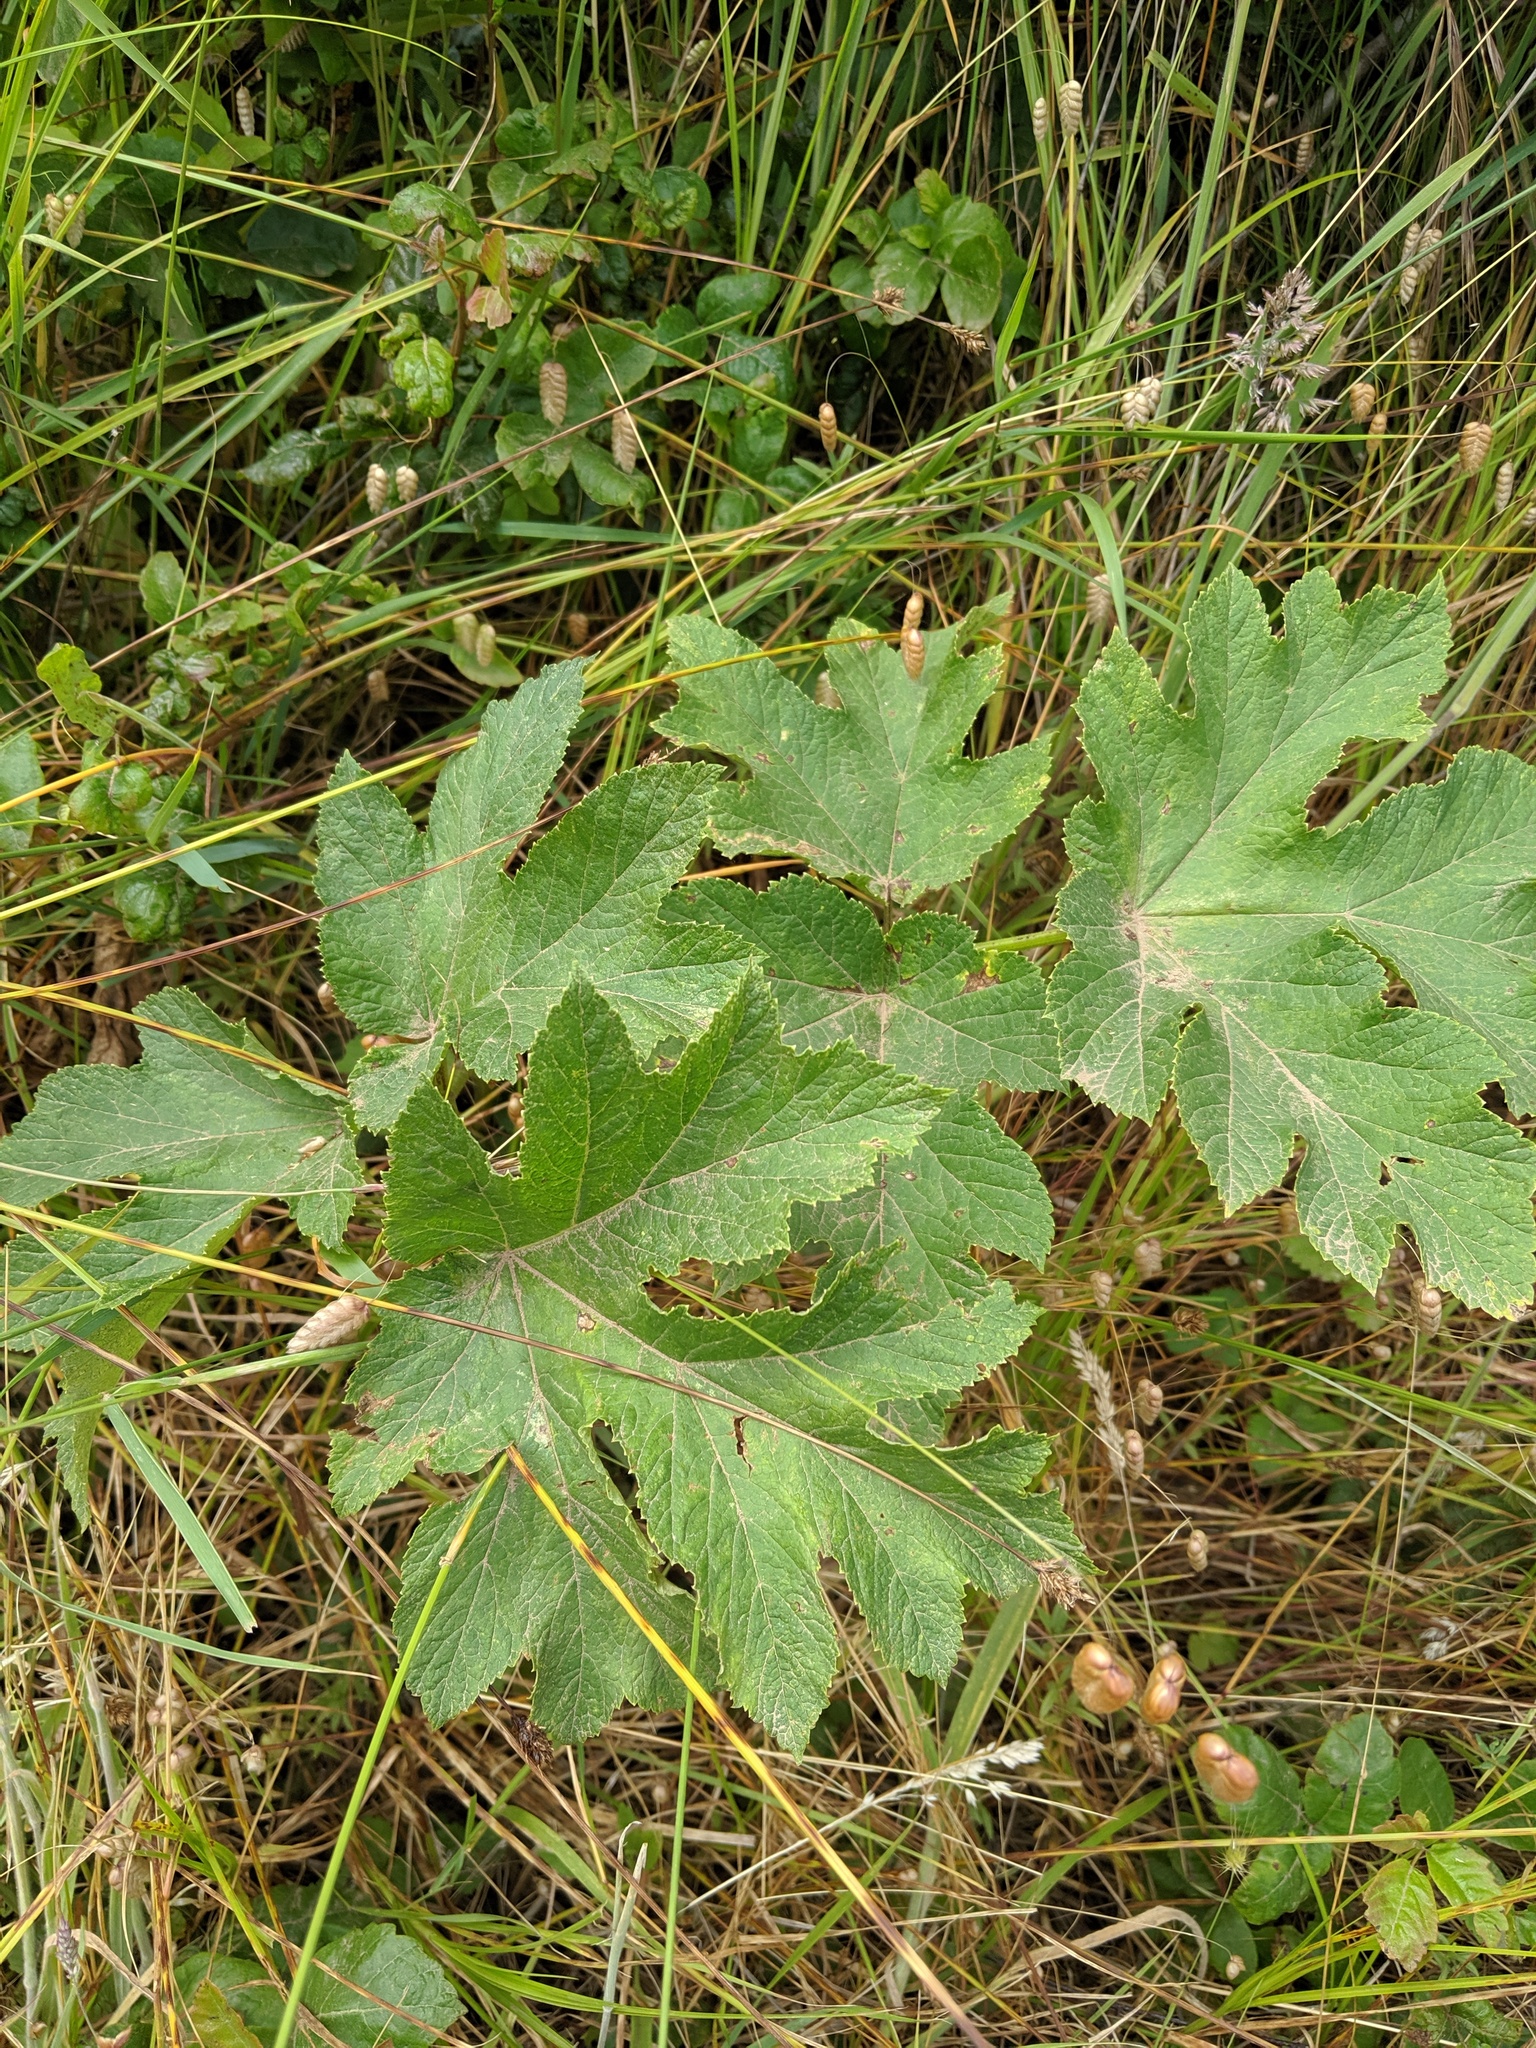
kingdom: Plantae
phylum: Tracheophyta
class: Magnoliopsida
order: Apiales
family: Apiaceae
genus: Heracleum
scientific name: Heracleum maximum
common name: American cow parsnip
